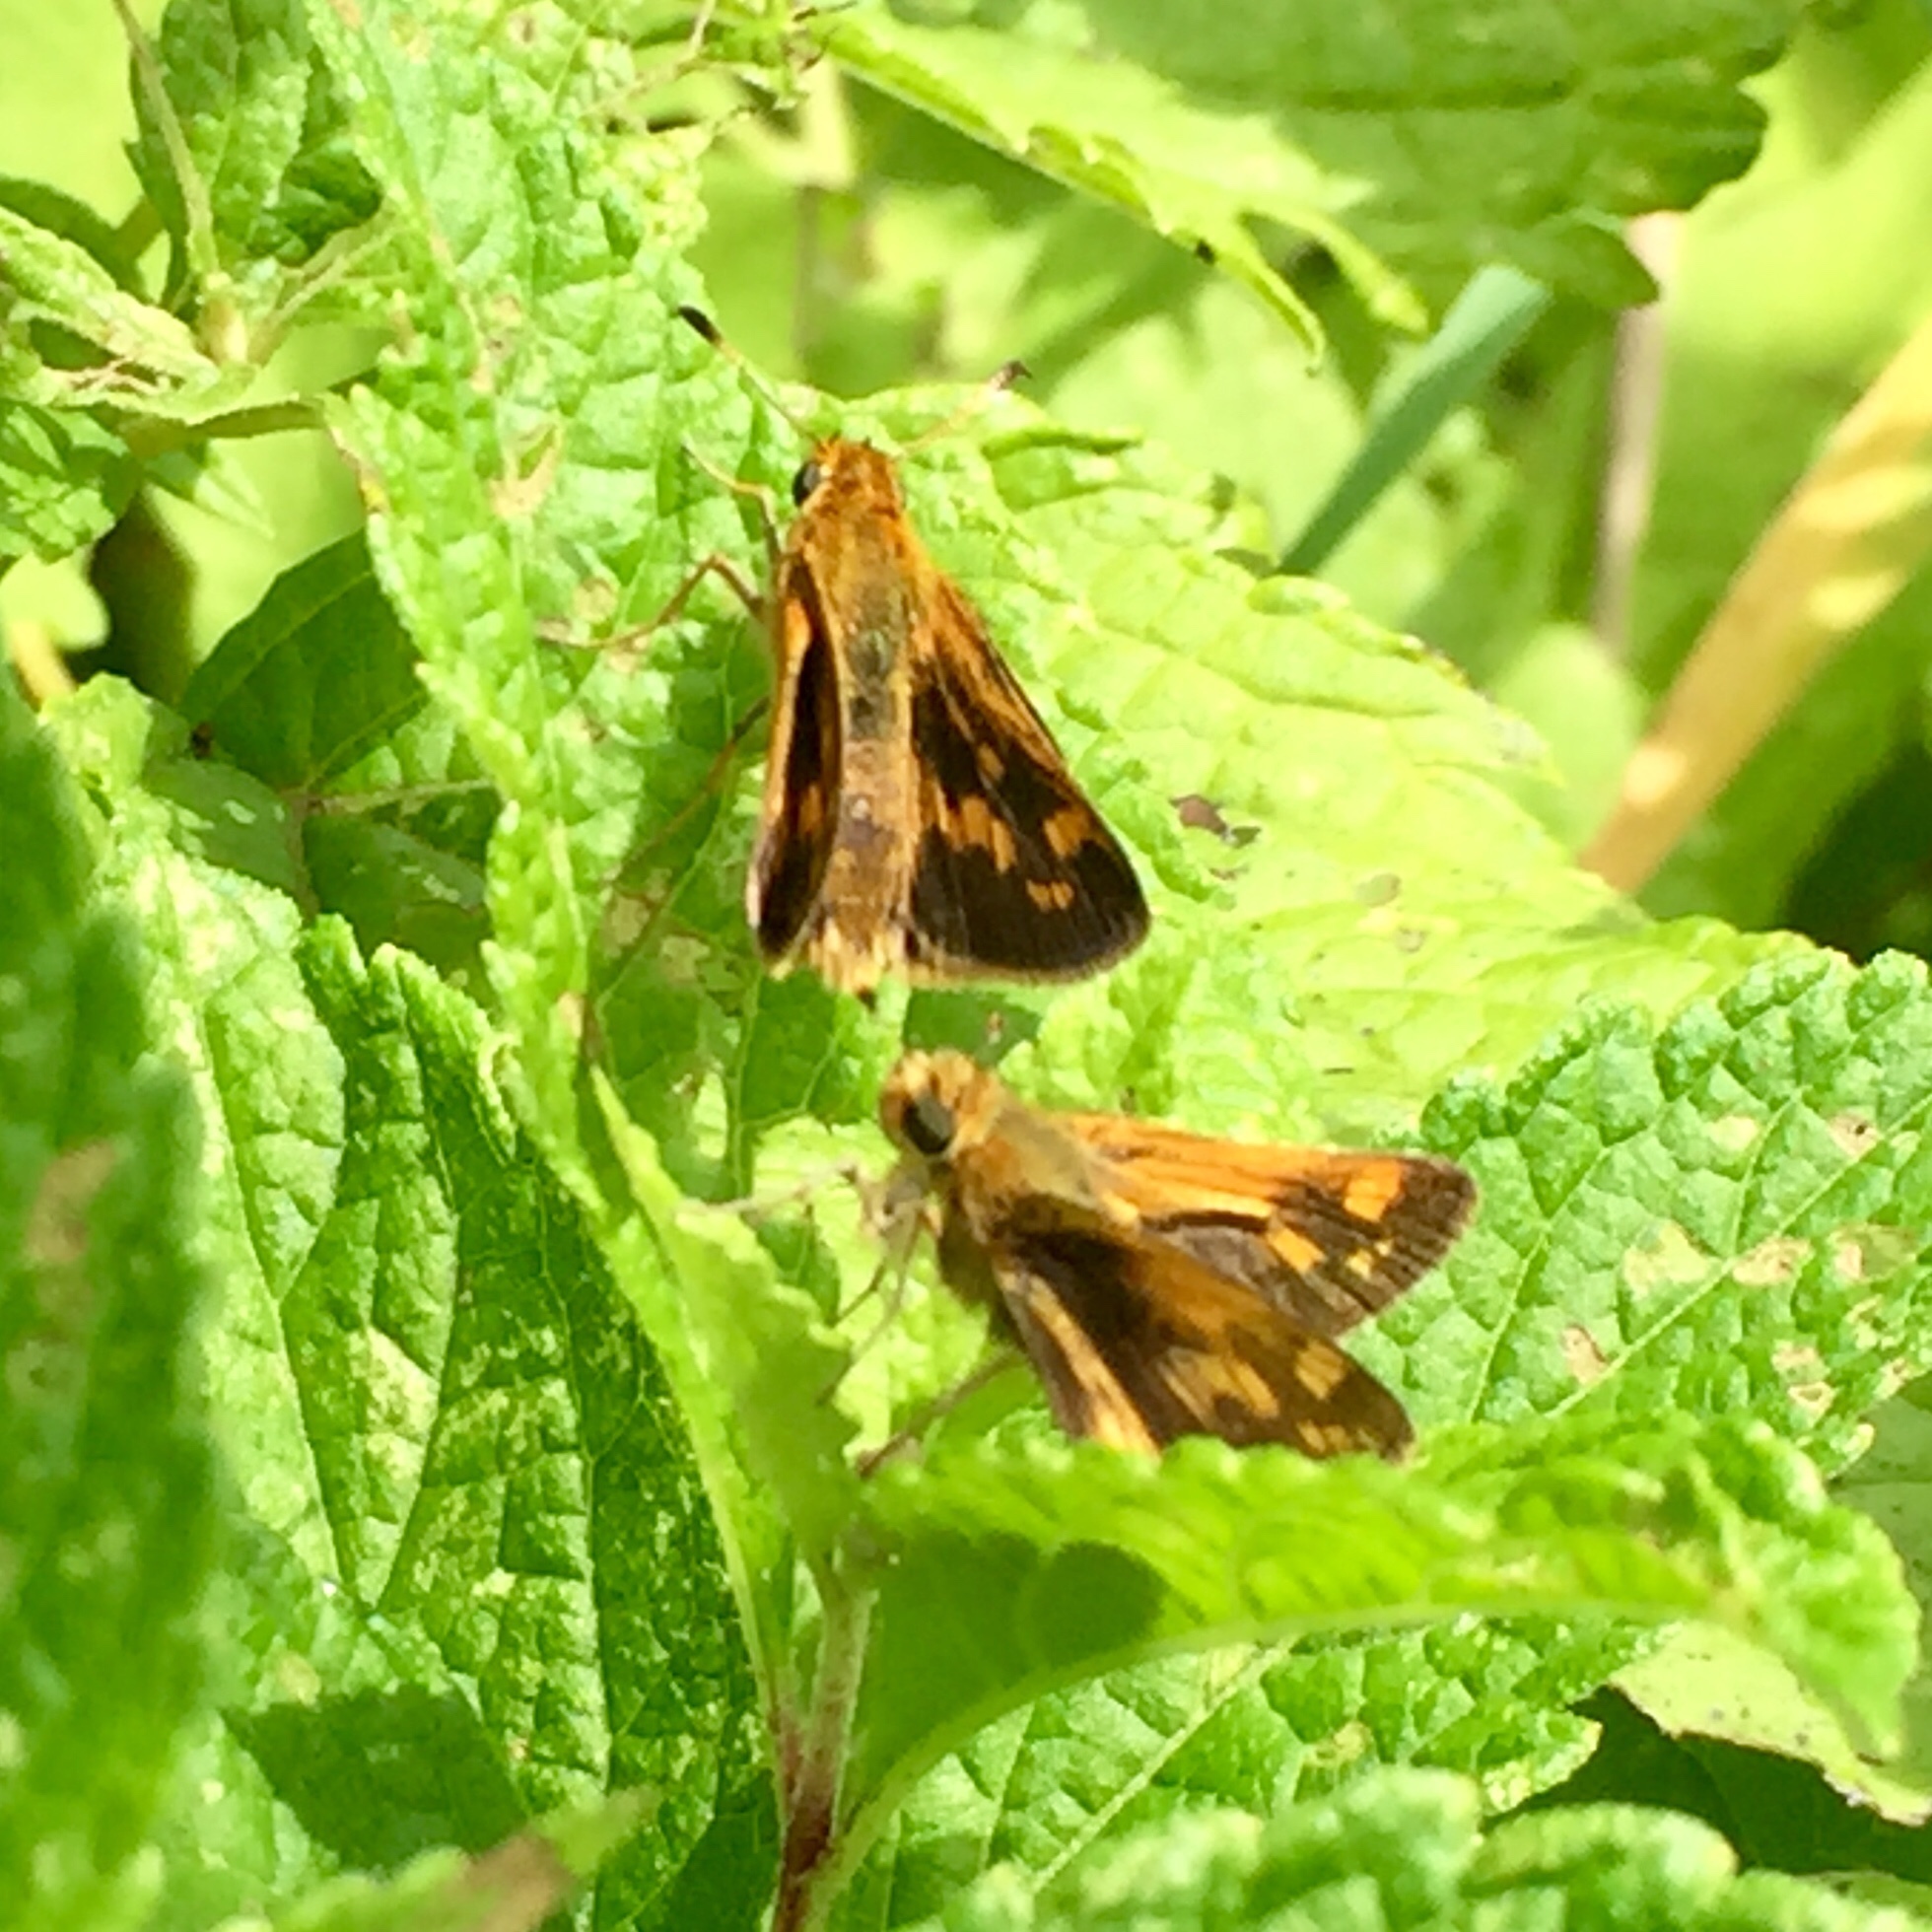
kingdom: Animalia
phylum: Arthropoda
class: Insecta
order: Lepidoptera
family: Hesperiidae
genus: Polites
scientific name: Polites coras
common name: Peck's skipper
